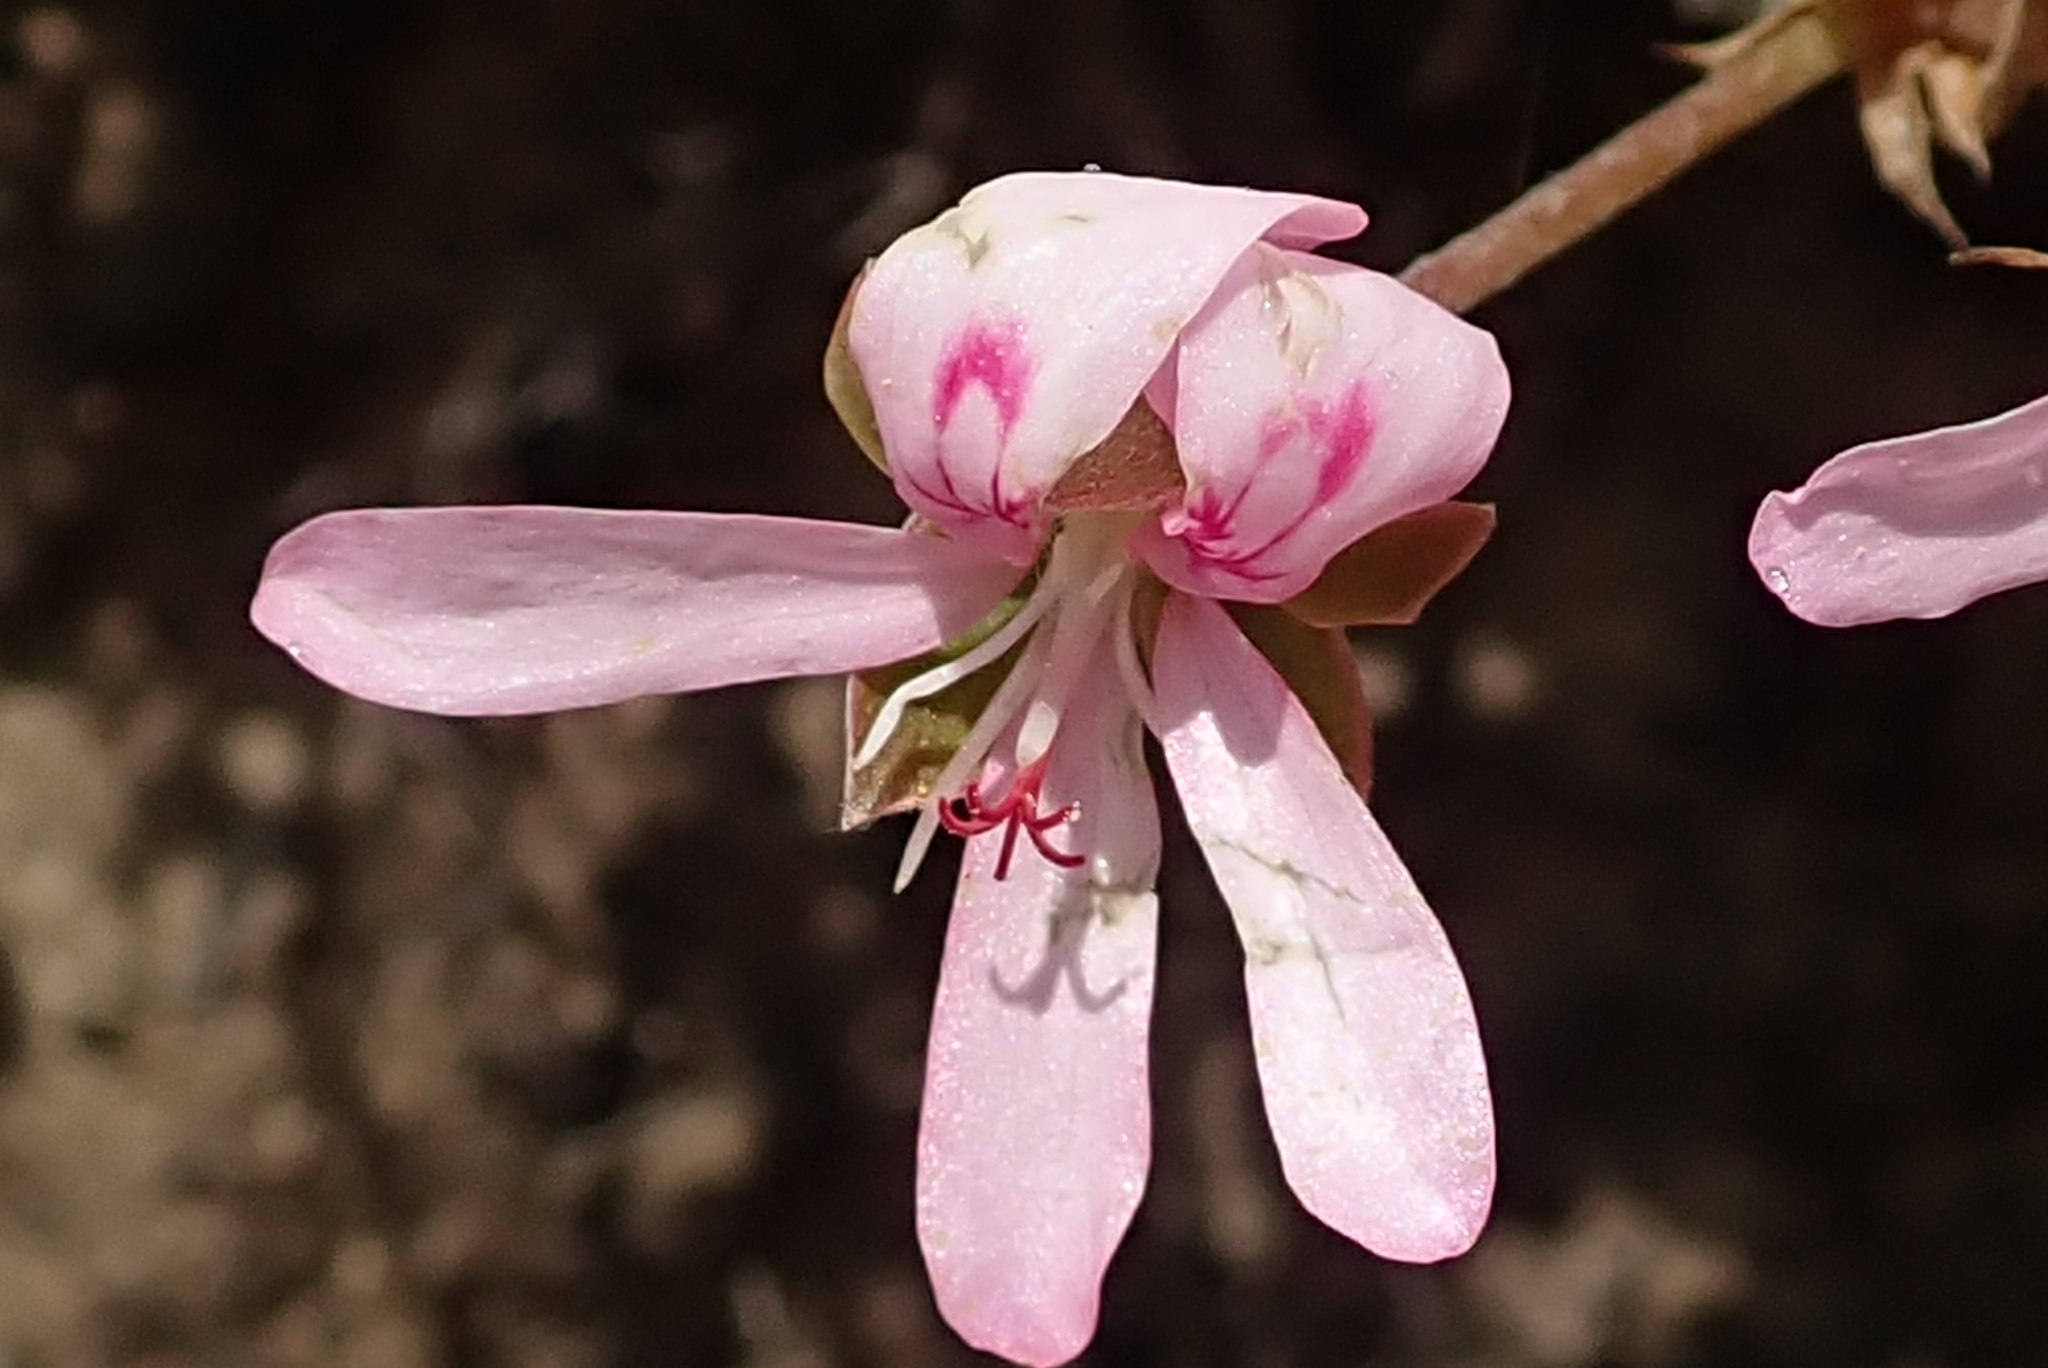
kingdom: Plantae
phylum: Tracheophyta
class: Magnoliopsida
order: Geraniales
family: Geraniaceae
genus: Pelargonium
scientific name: Pelargonium ovale
